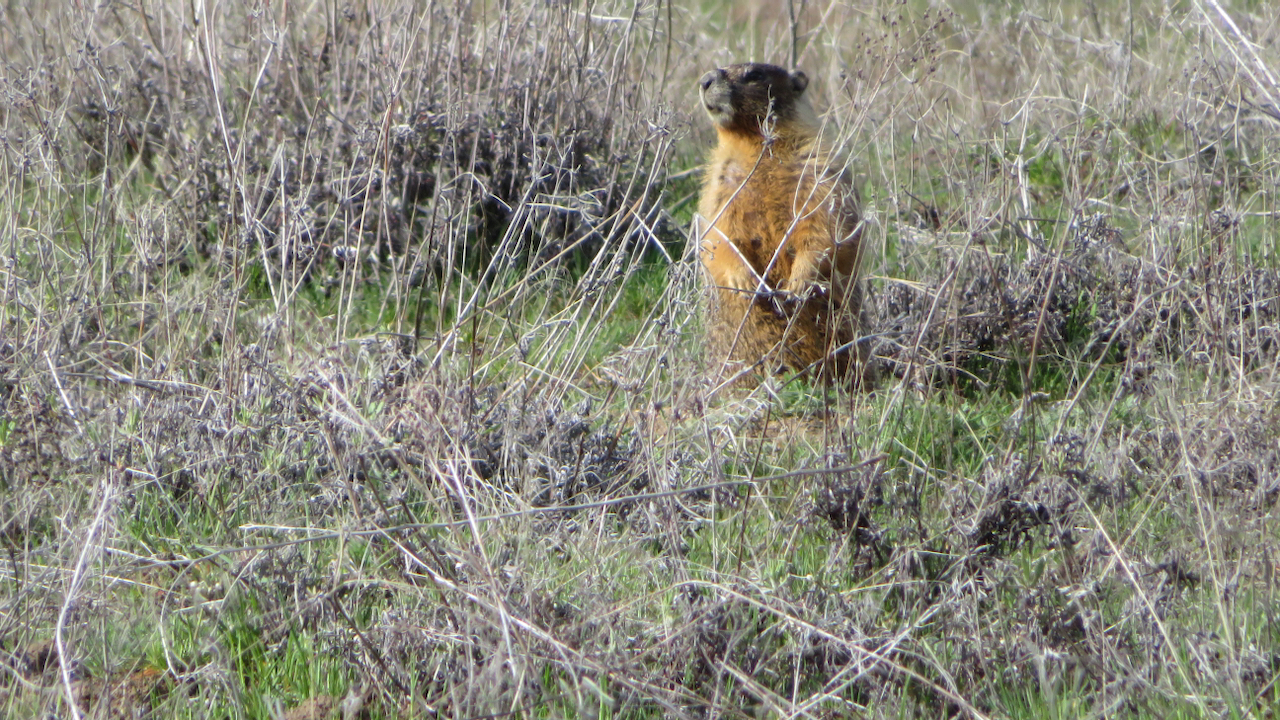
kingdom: Animalia
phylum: Chordata
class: Mammalia
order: Rodentia
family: Sciuridae
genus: Marmota
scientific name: Marmota flaviventris
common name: Yellow-bellied marmot
